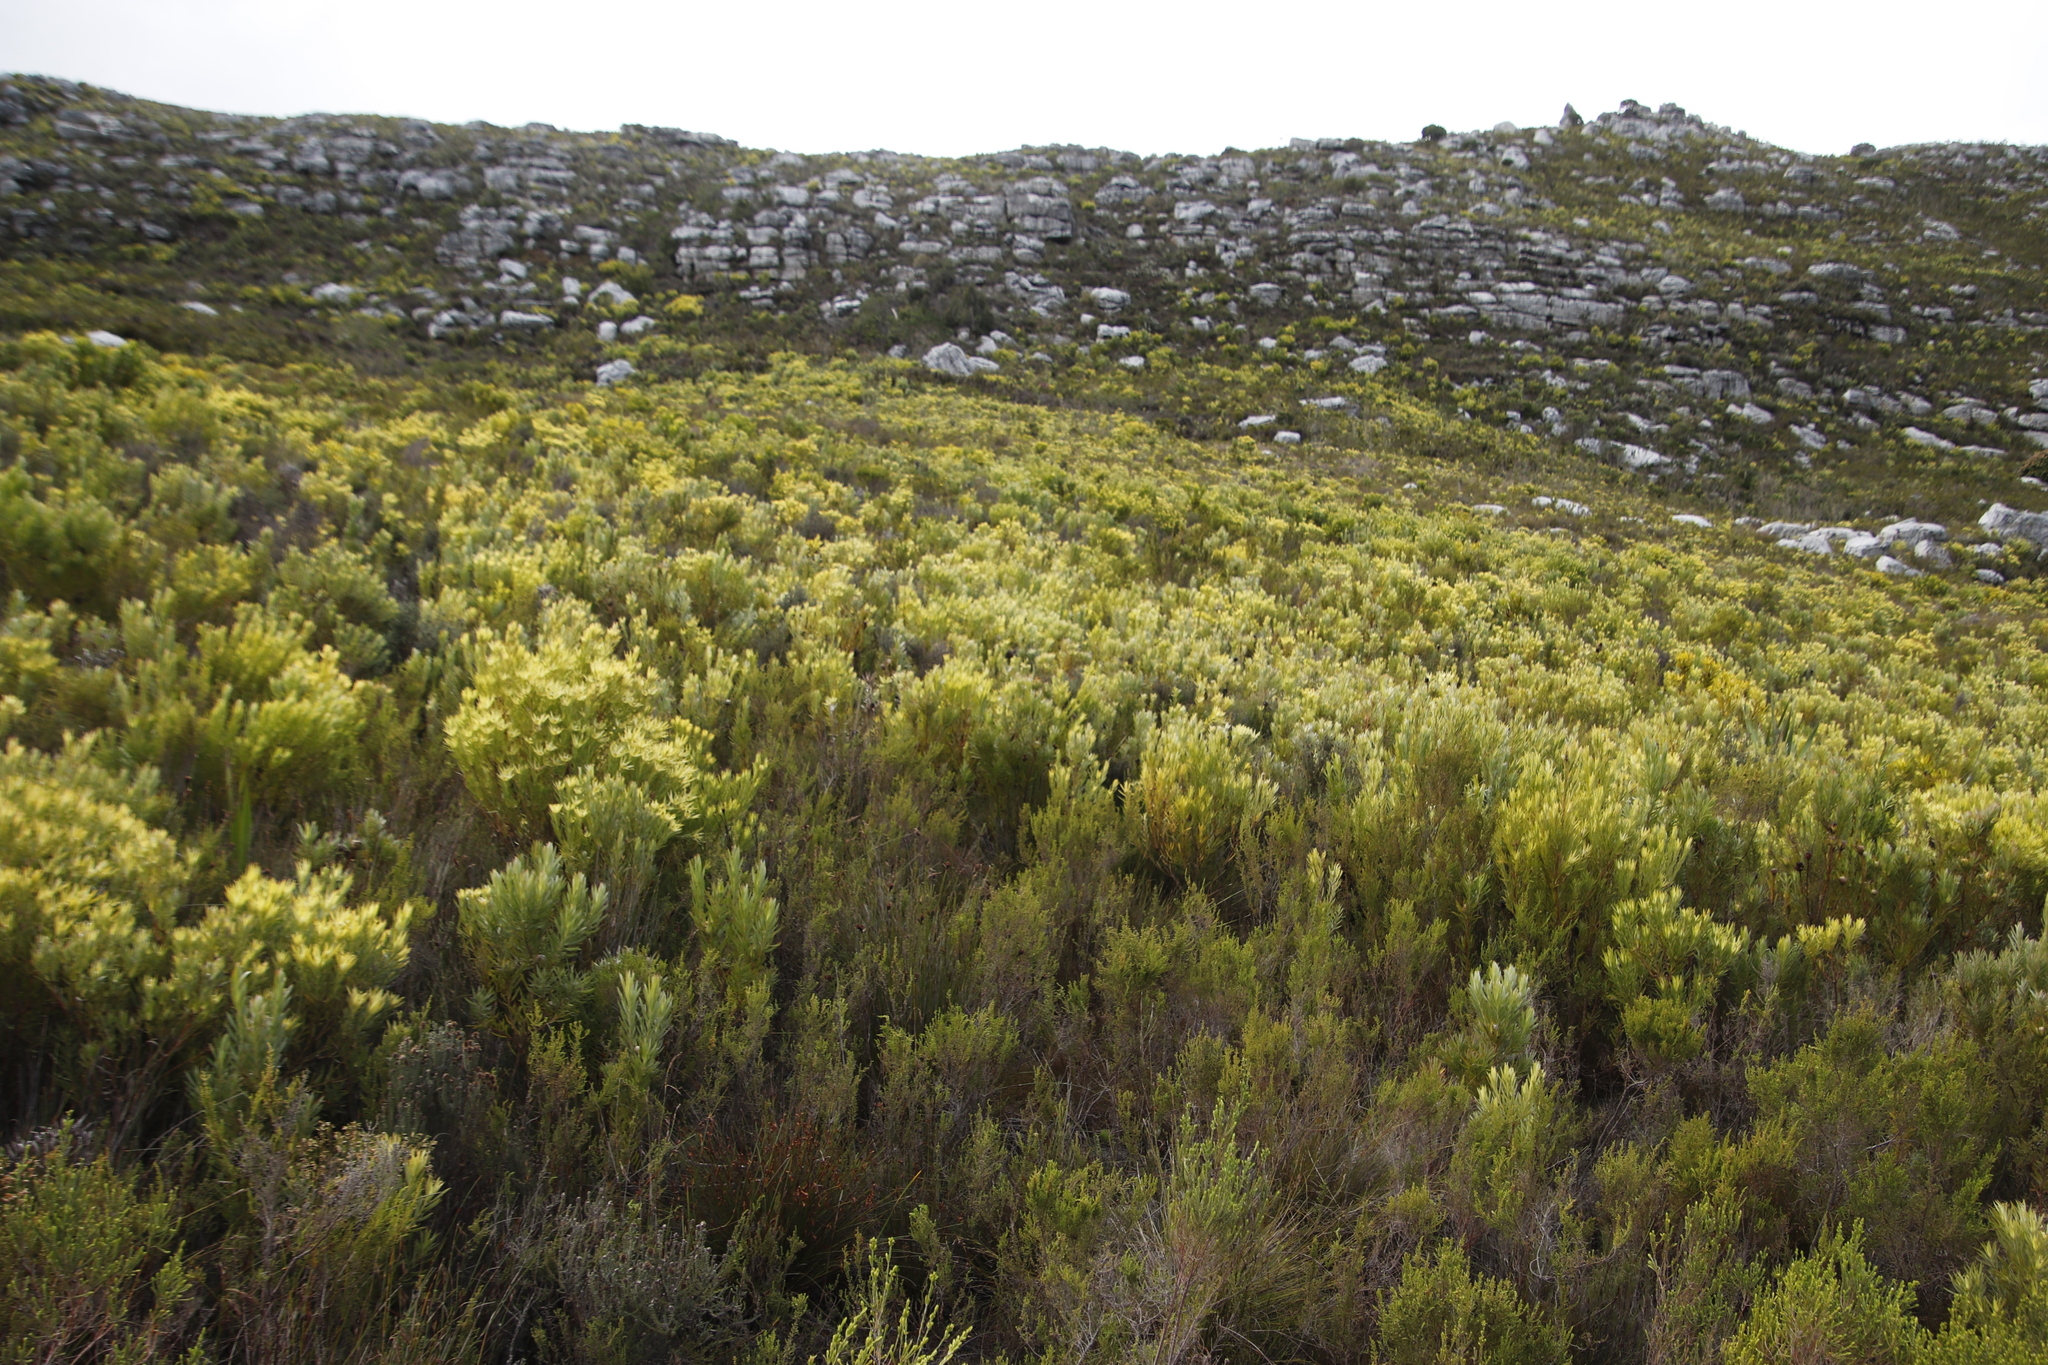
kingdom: Plantae
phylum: Tracheophyta
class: Magnoliopsida
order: Proteales
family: Proteaceae
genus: Leucadendron
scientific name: Leucadendron xanthoconus
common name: Sickle-leaf conebush
